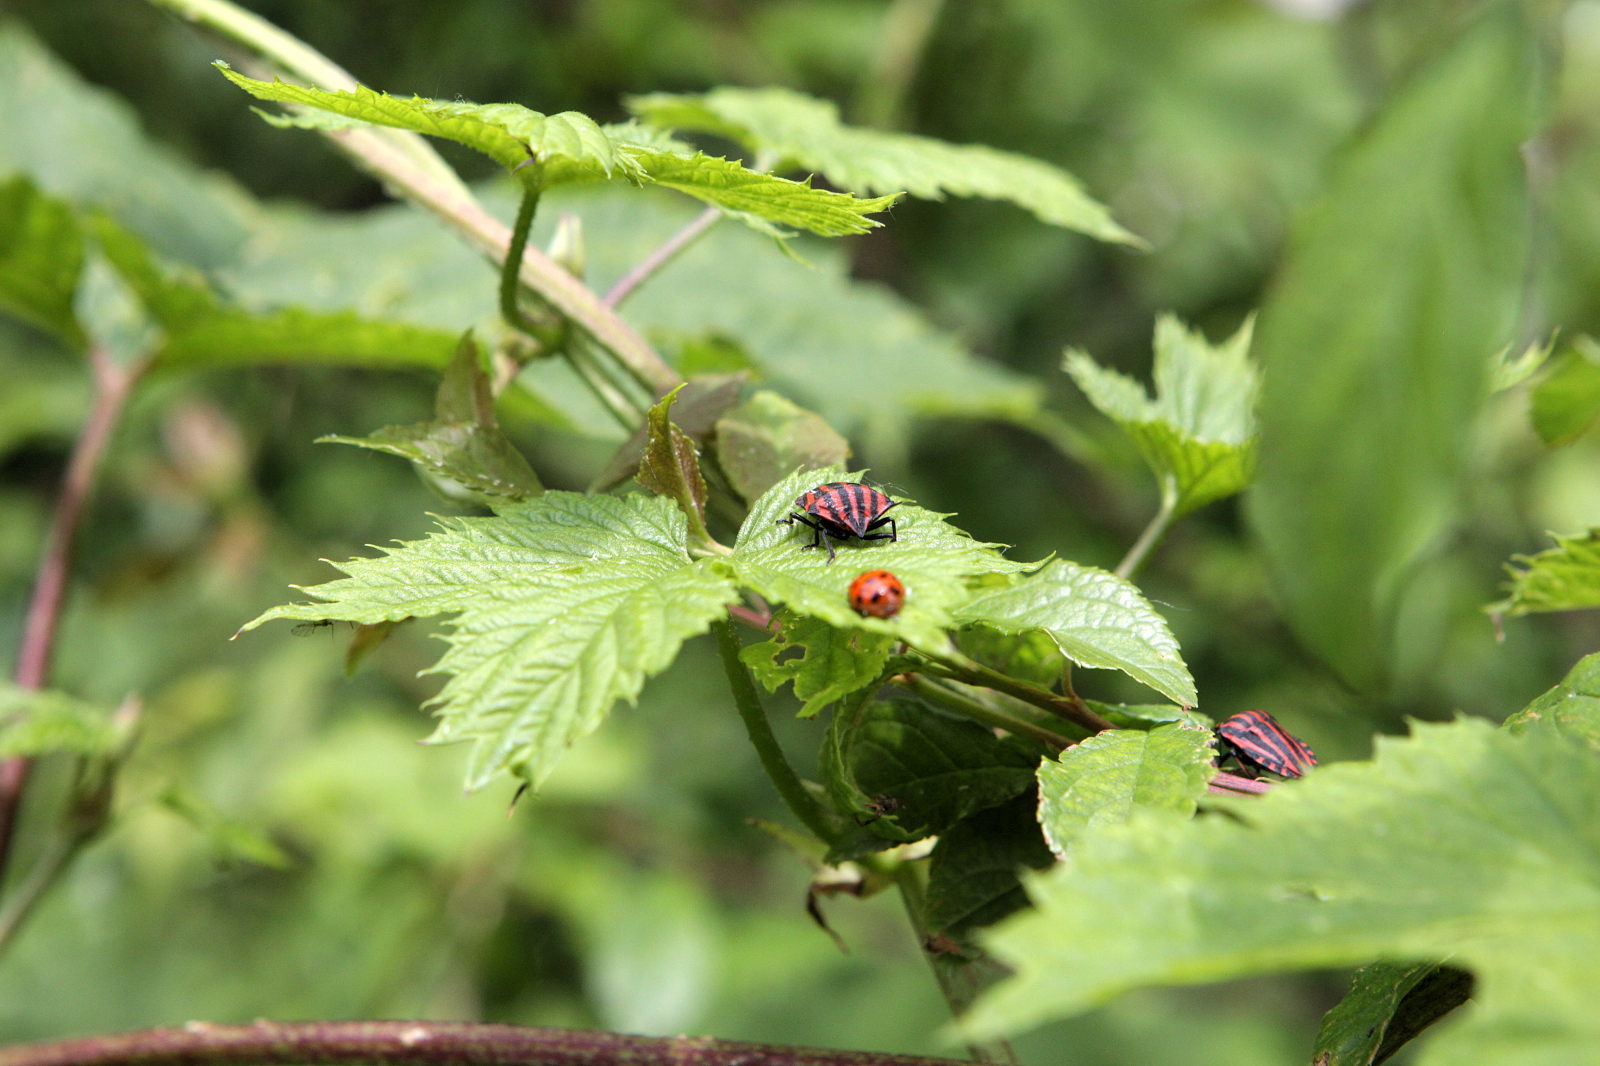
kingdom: Animalia
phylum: Arthropoda
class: Insecta
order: Hemiptera
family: Pentatomidae
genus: Graphosoma
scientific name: Graphosoma italicum
